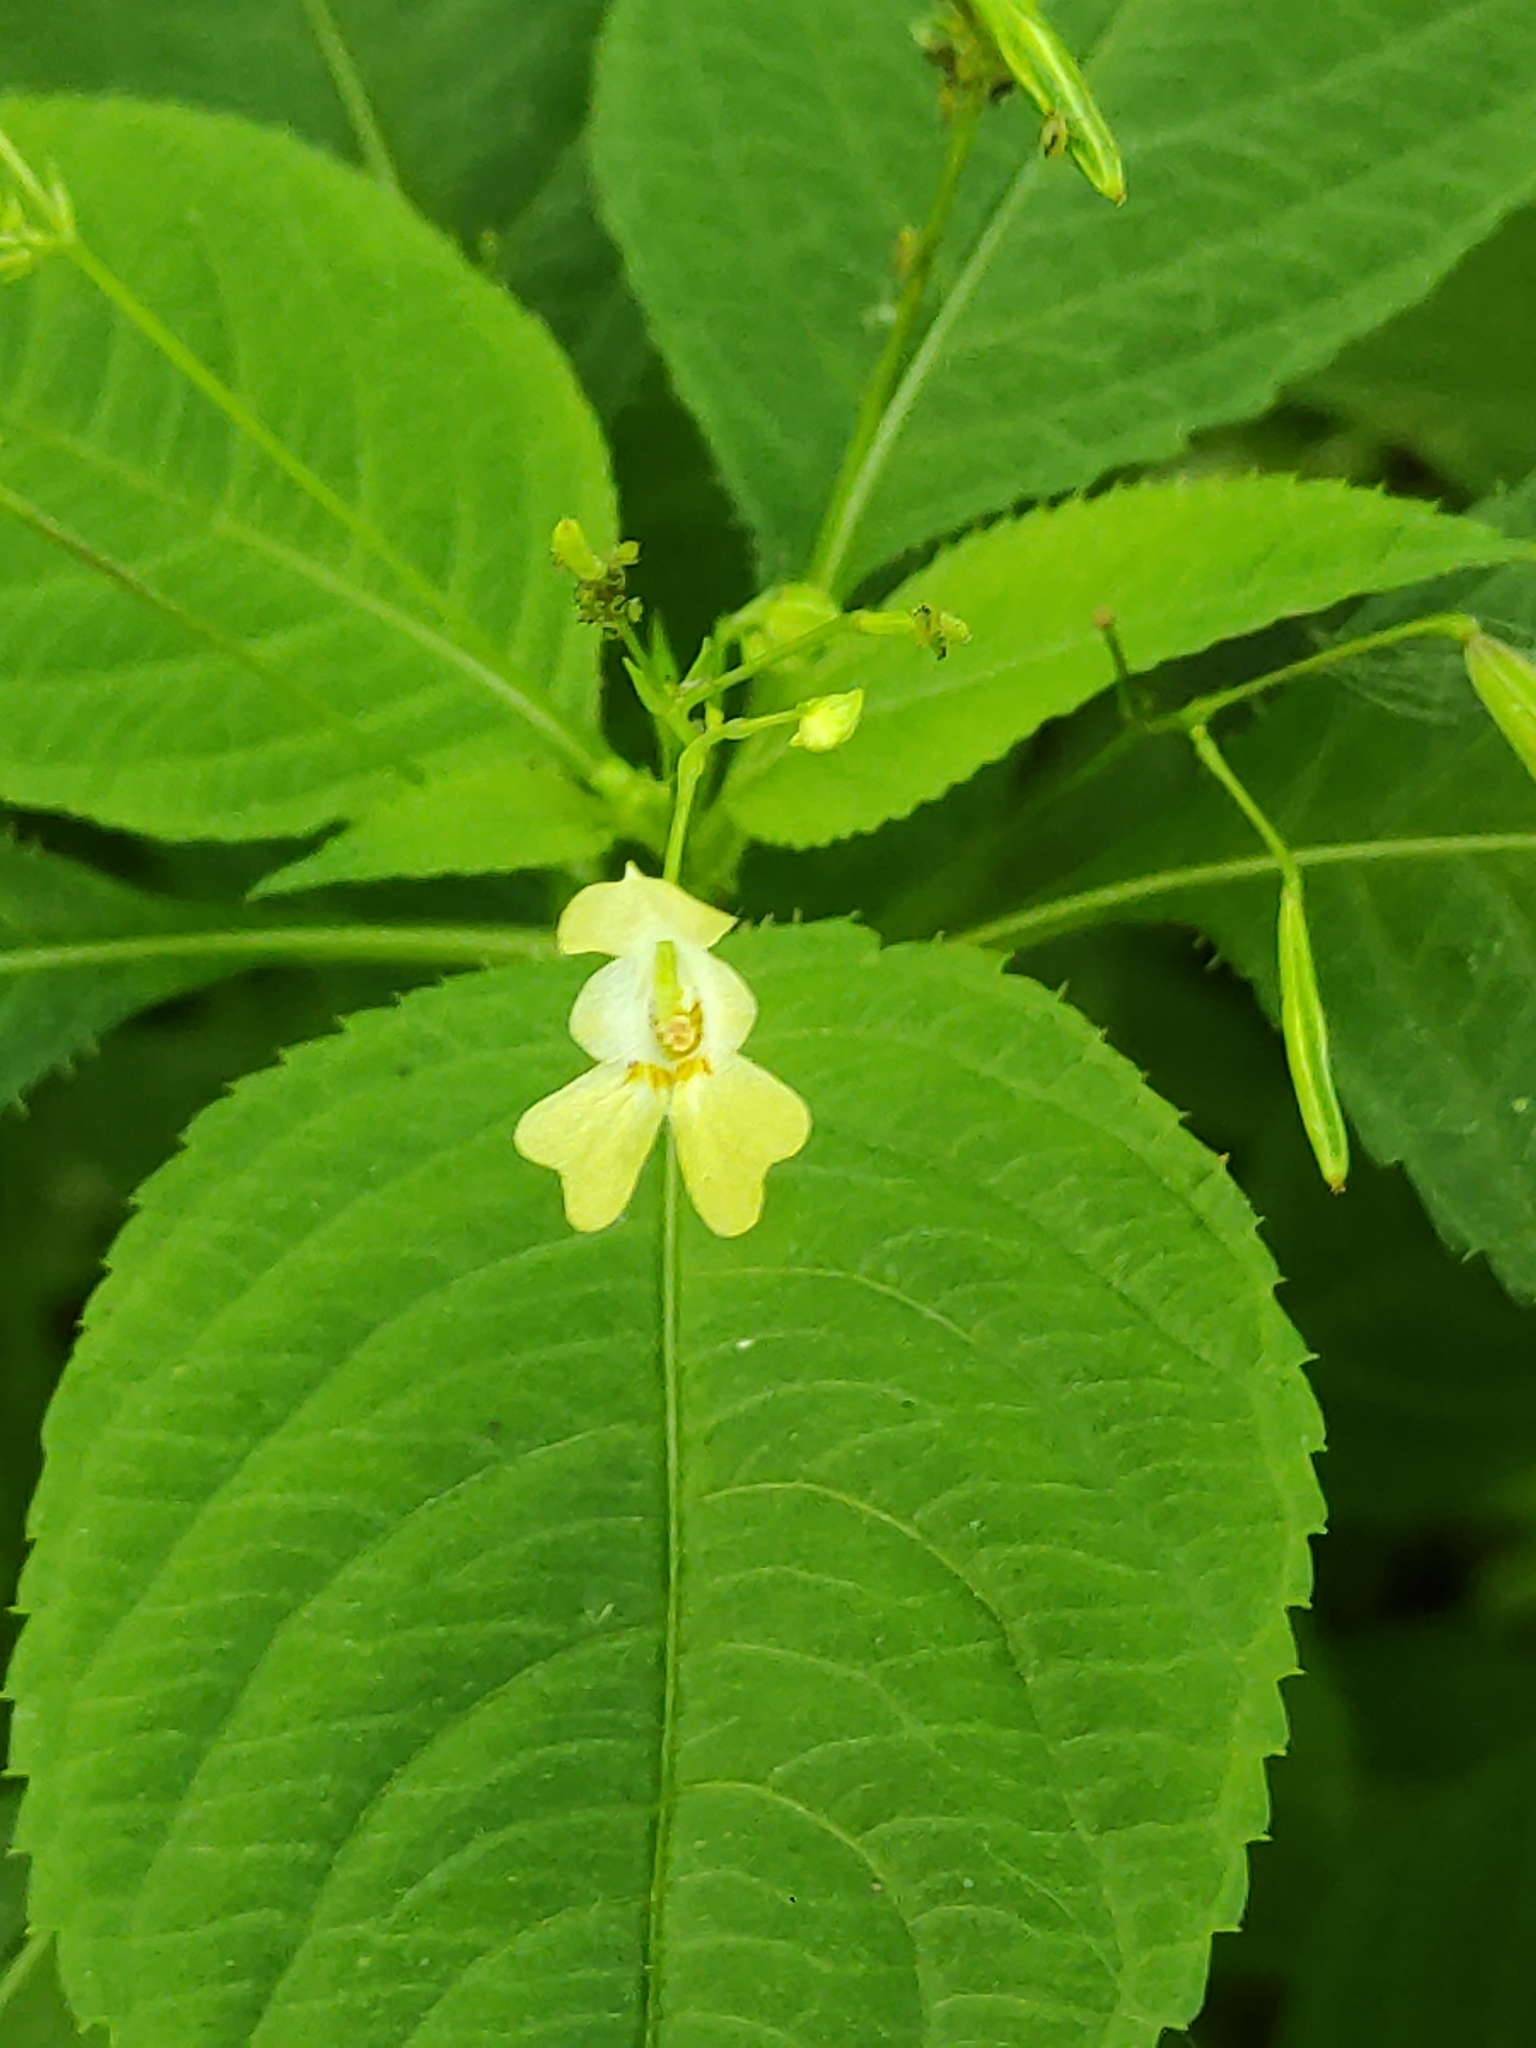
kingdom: Plantae
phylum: Tracheophyta
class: Magnoliopsida
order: Ericales
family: Balsaminaceae
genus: Impatiens
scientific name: Impatiens parviflora
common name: Small balsam
